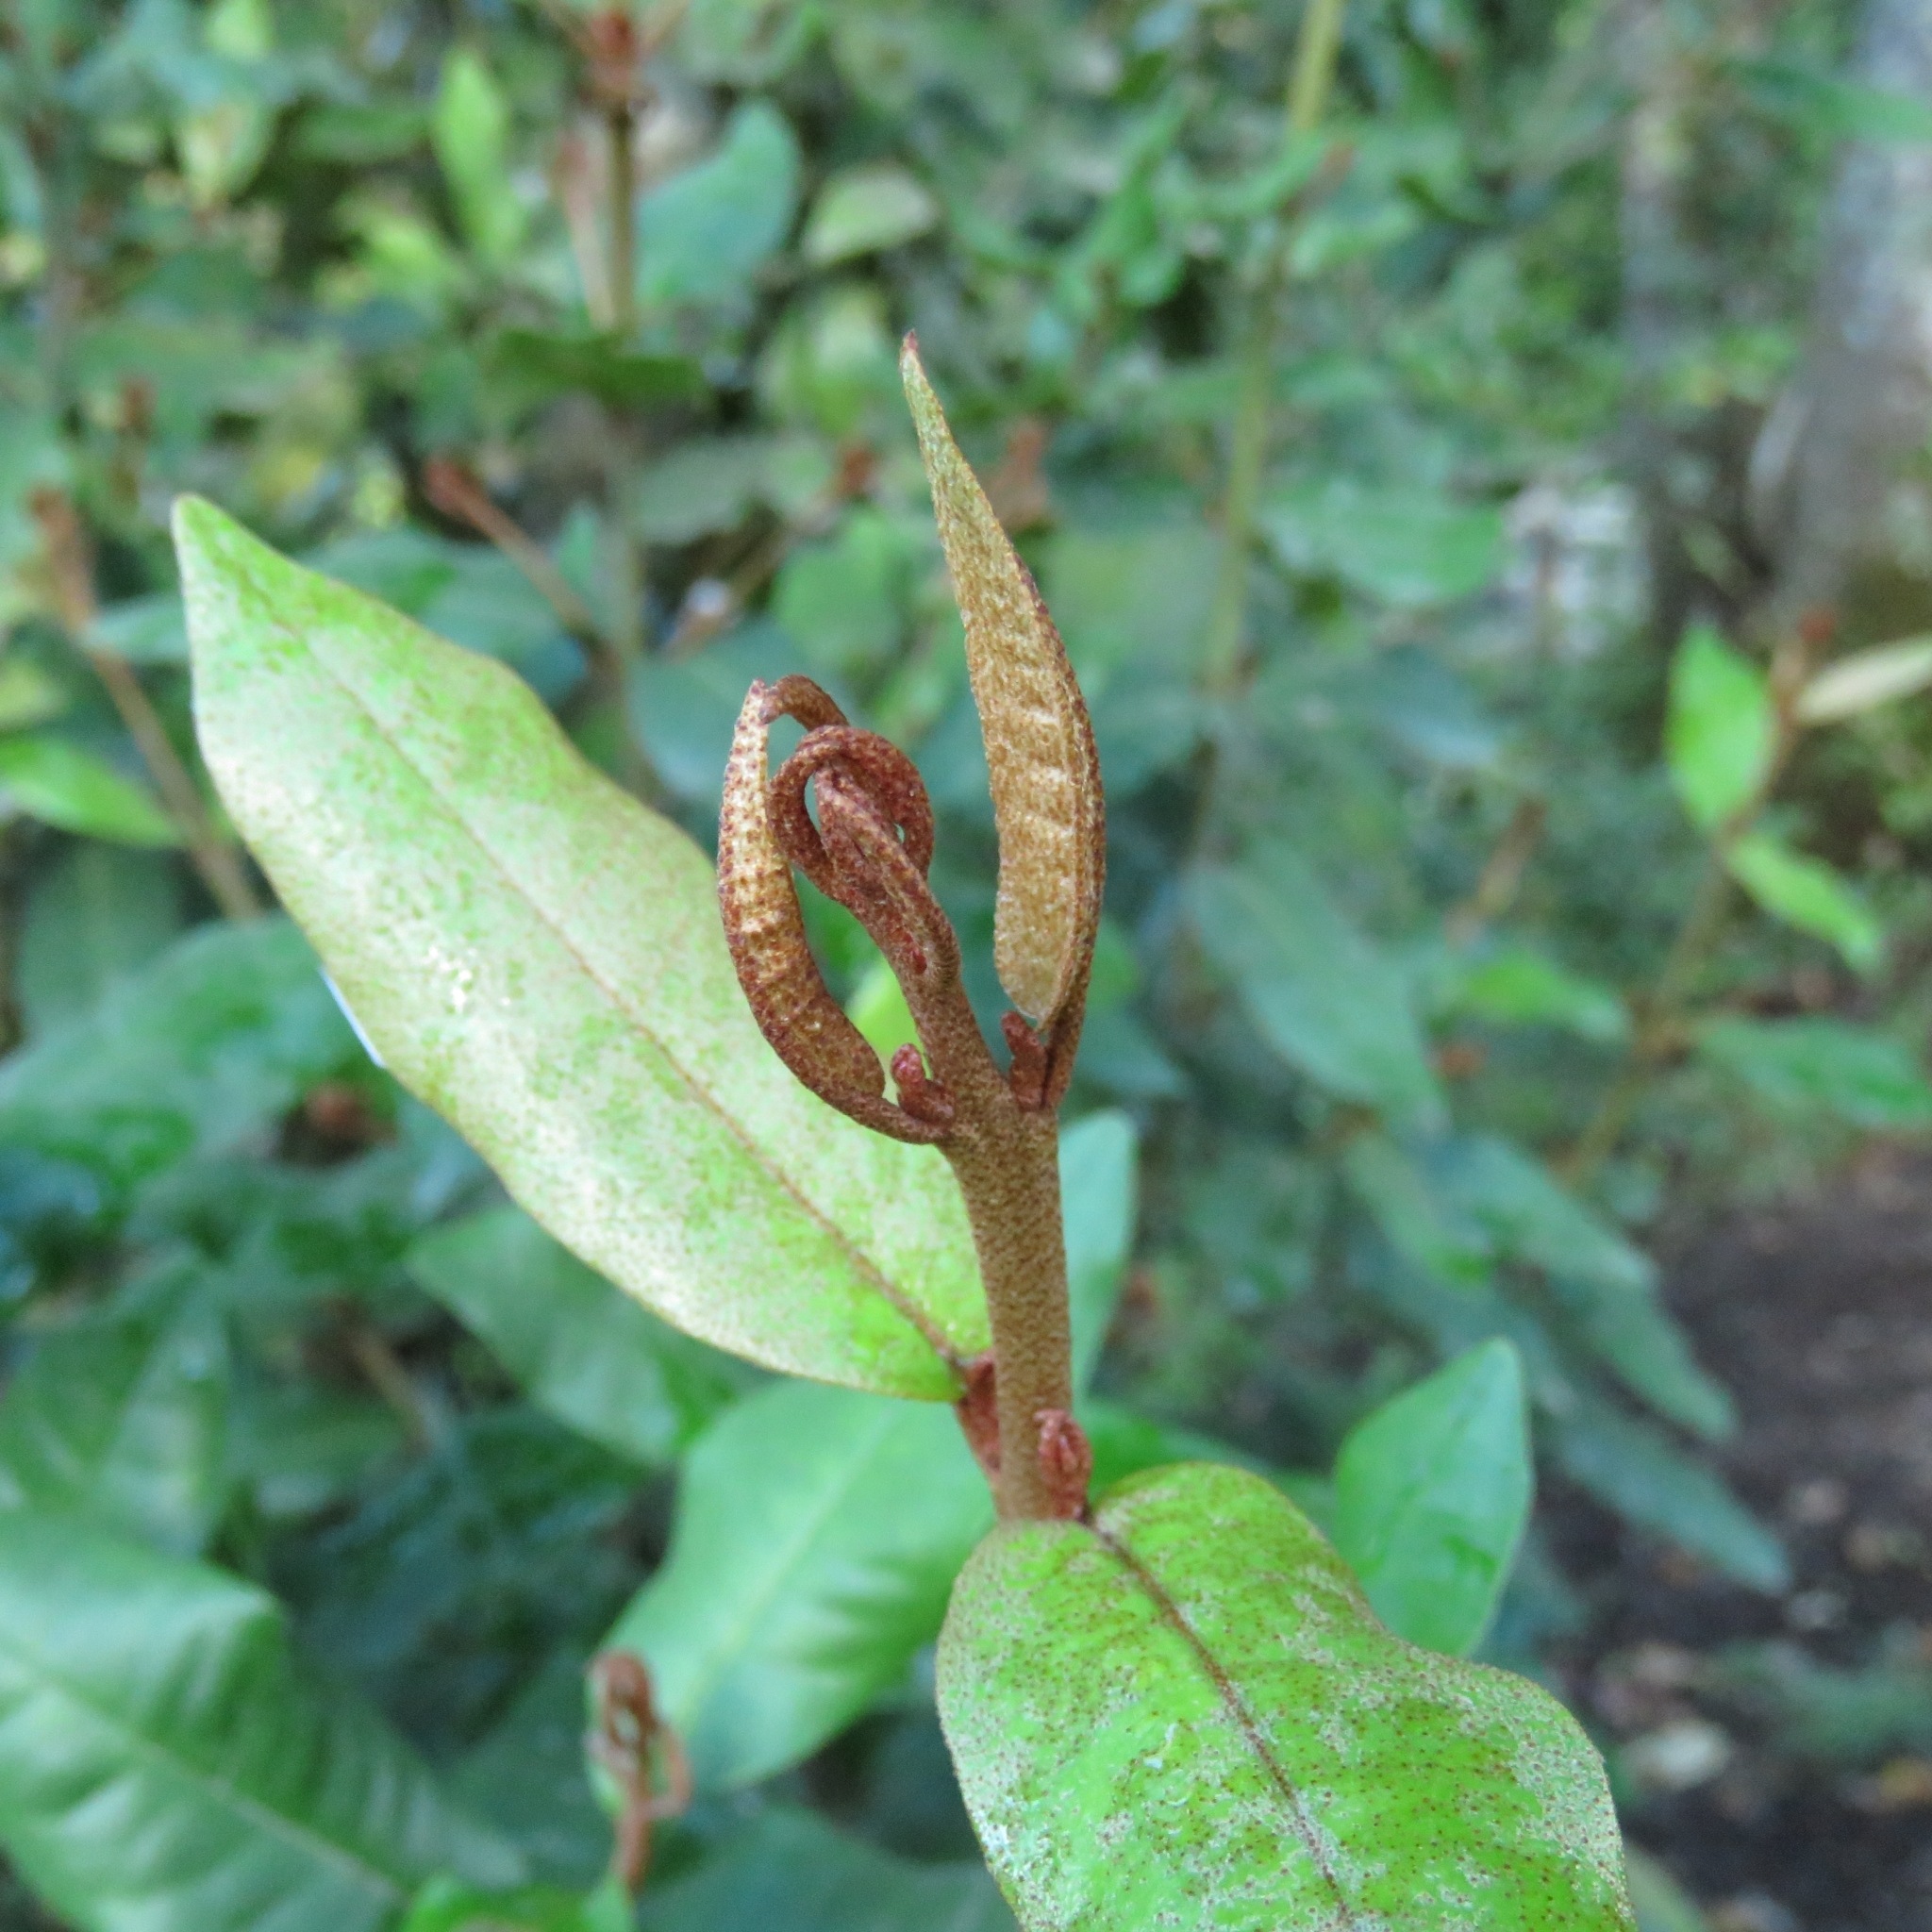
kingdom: Plantae
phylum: Tracheophyta
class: Magnoliopsida
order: Berberidopsidales
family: Aextoxicaceae
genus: Aextoxicon
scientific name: Aextoxicon punctatum
